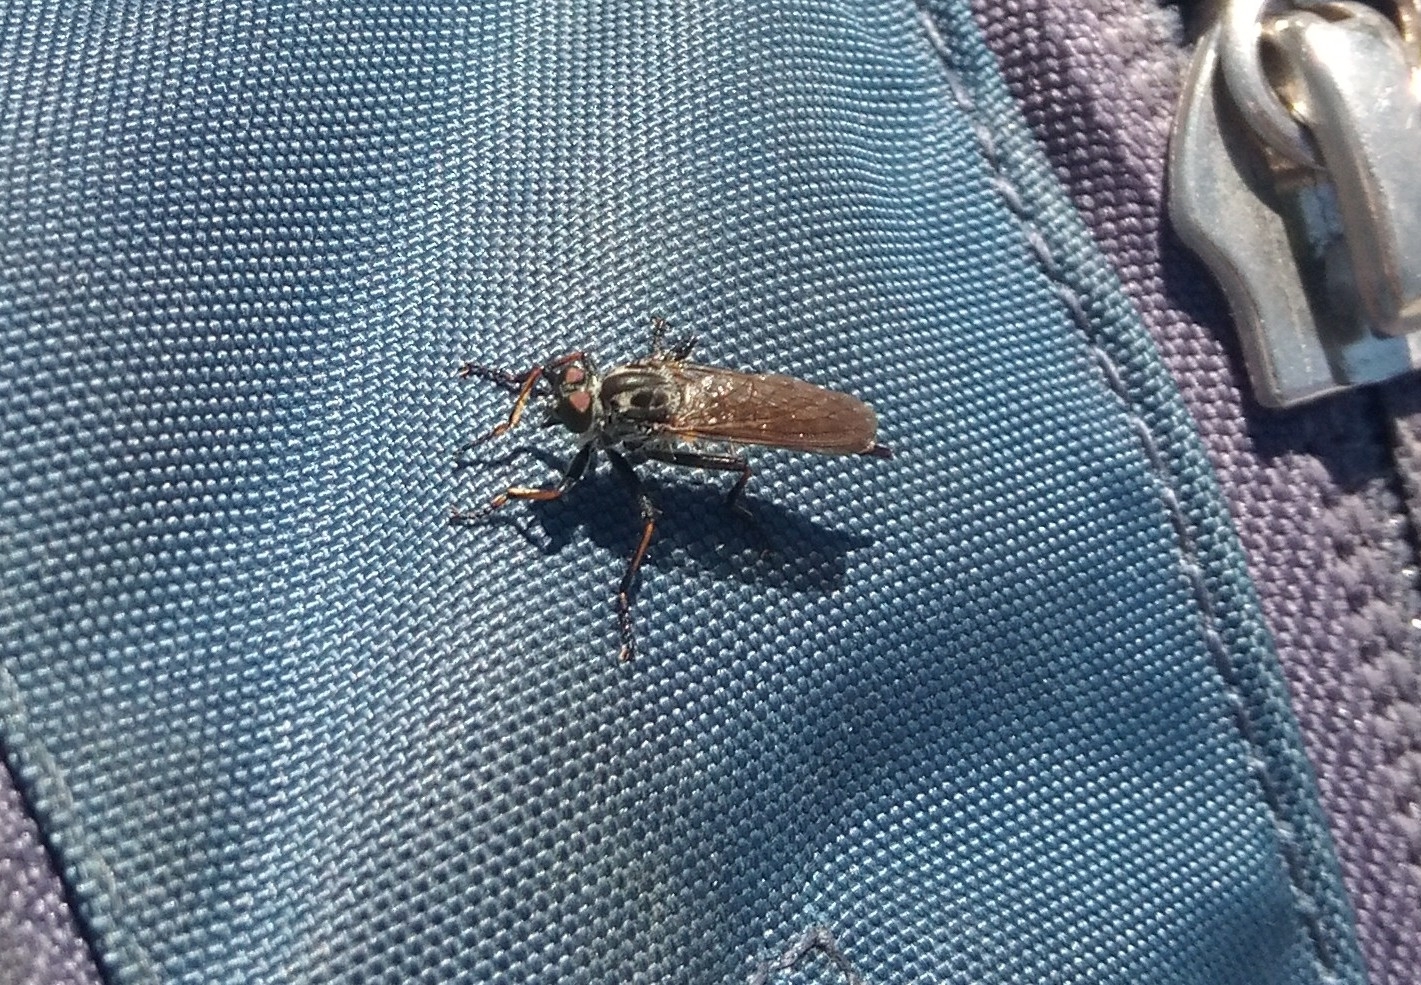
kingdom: Animalia
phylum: Arthropoda
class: Insecta
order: Diptera
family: Asilidae
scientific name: Asilidae
